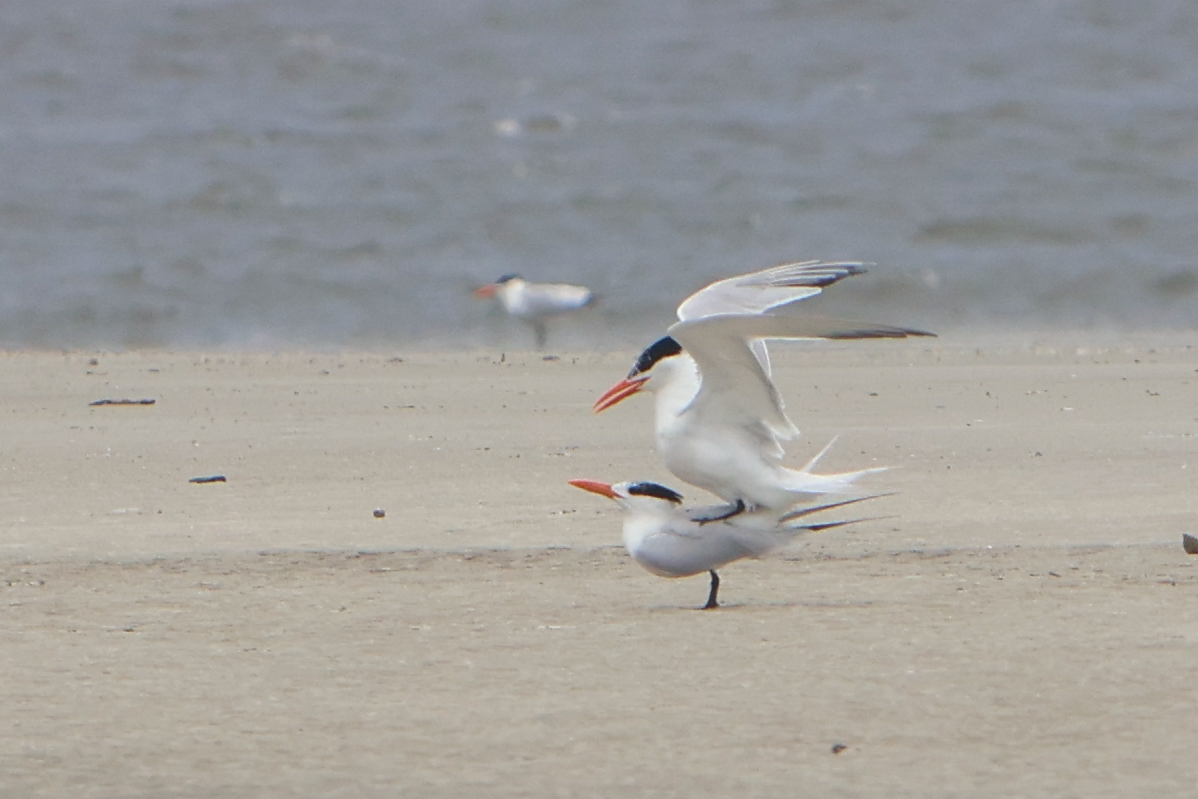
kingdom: Animalia
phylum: Chordata
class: Aves
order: Charadriiformes
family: Laridae
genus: Thalasseus
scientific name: Thalasseus maximus
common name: Royal tern
